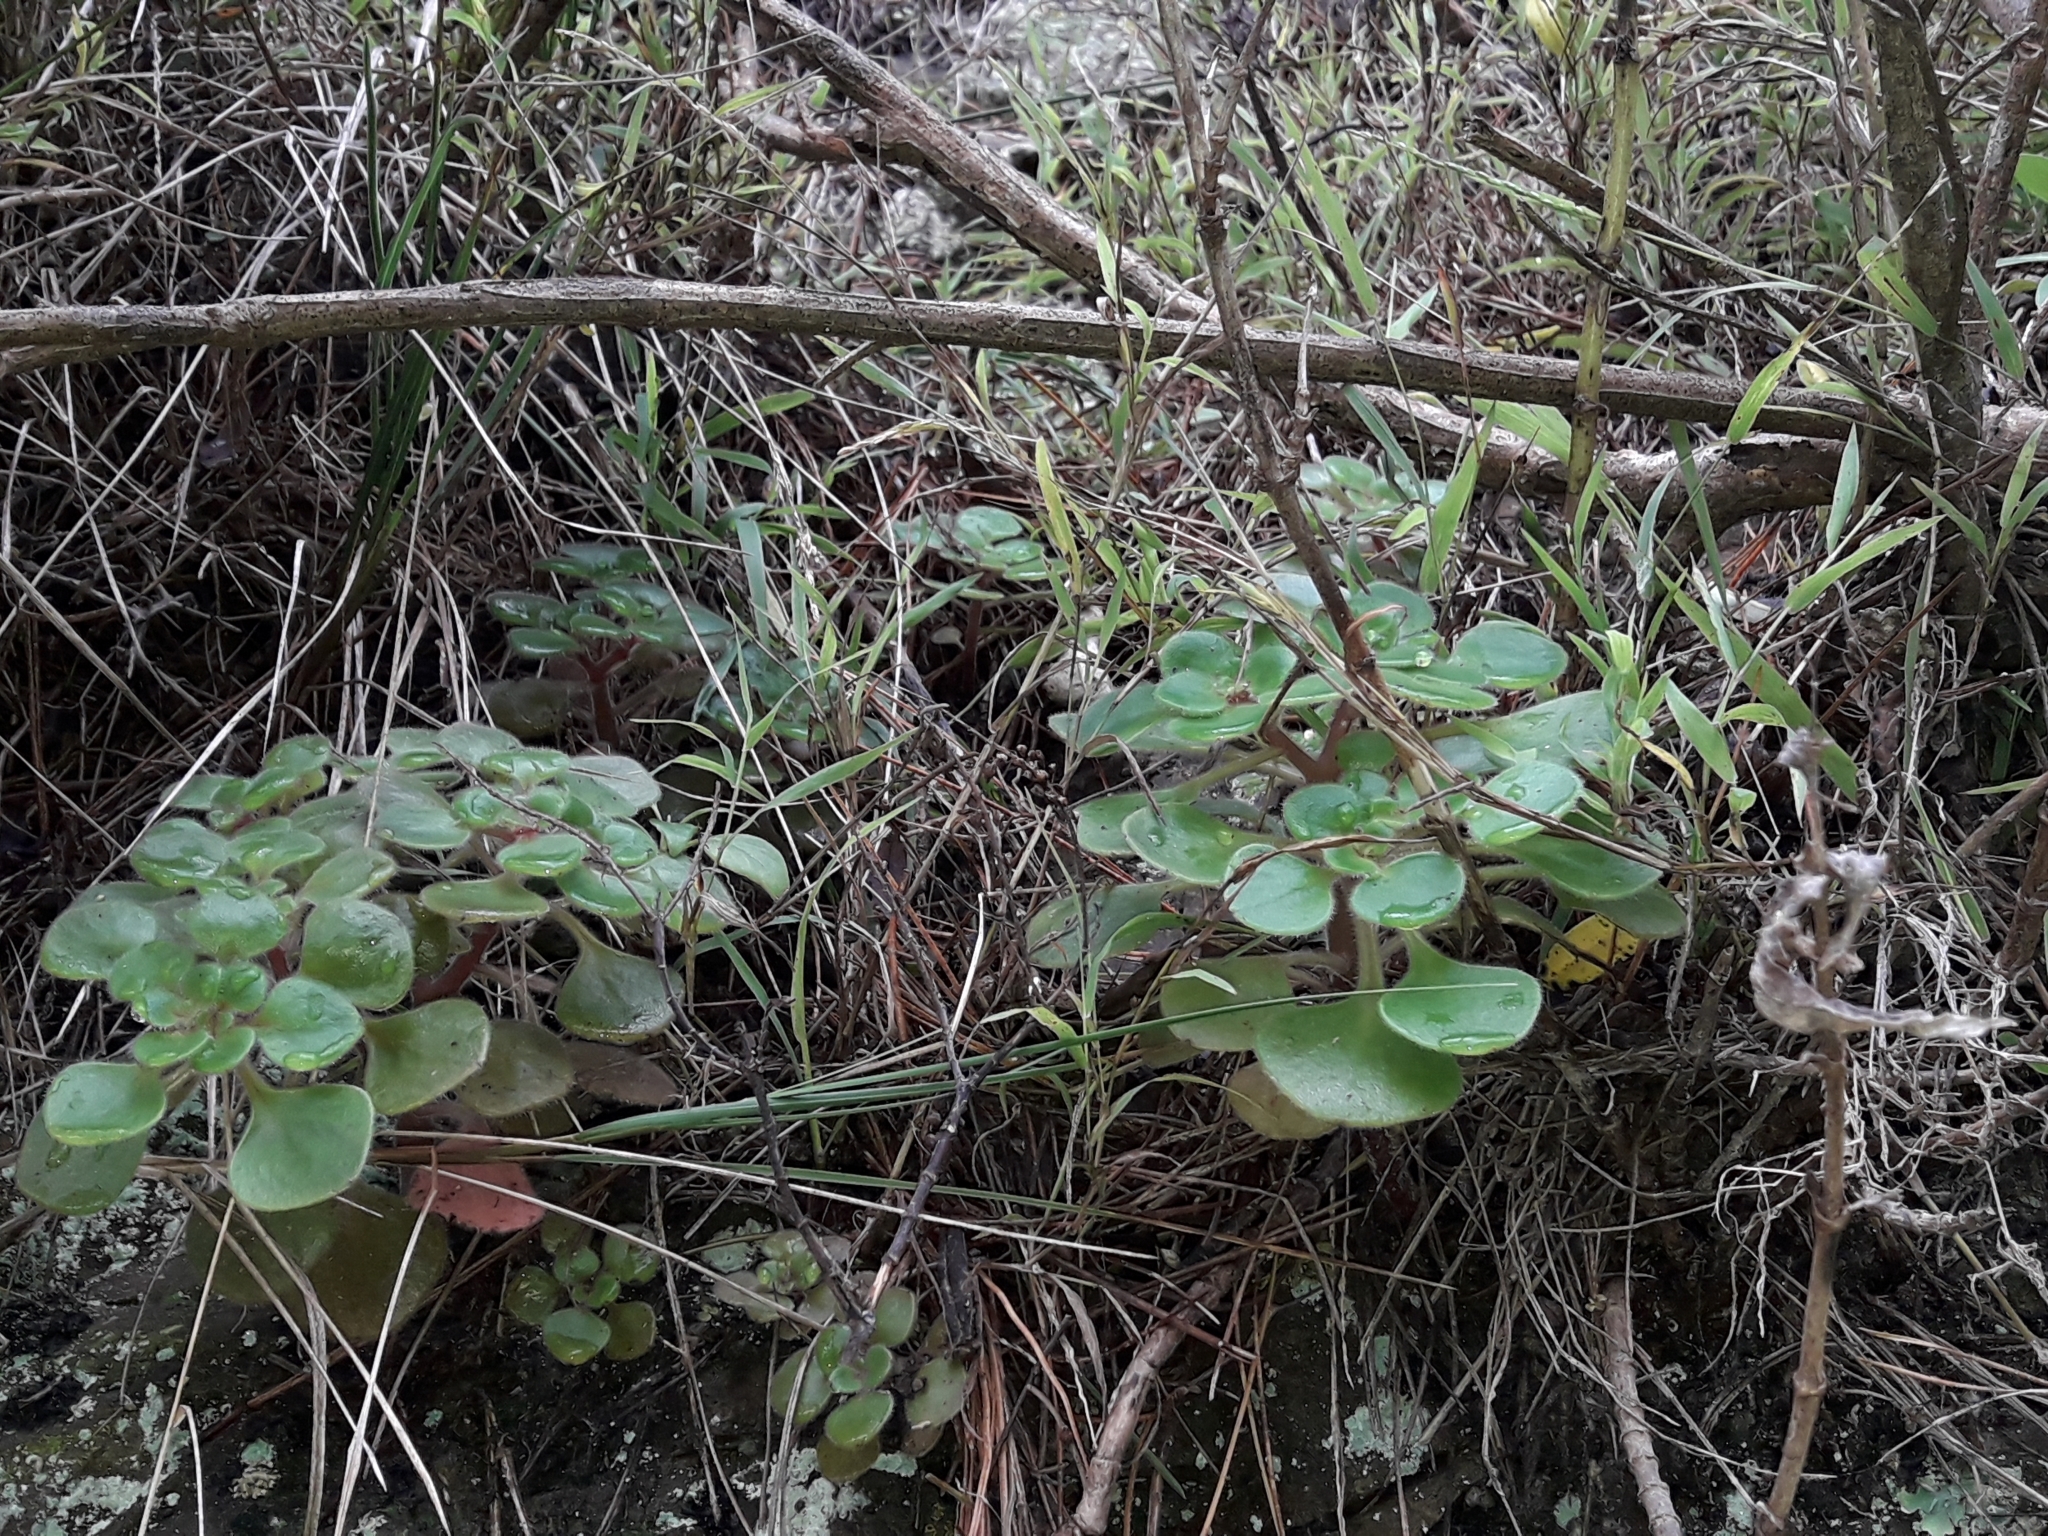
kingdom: Plantae
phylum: Tracheophyta
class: Magnoliopsida
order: Saxifragales
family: Crassulaceae
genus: Aichryson
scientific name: Aichryson laxum
